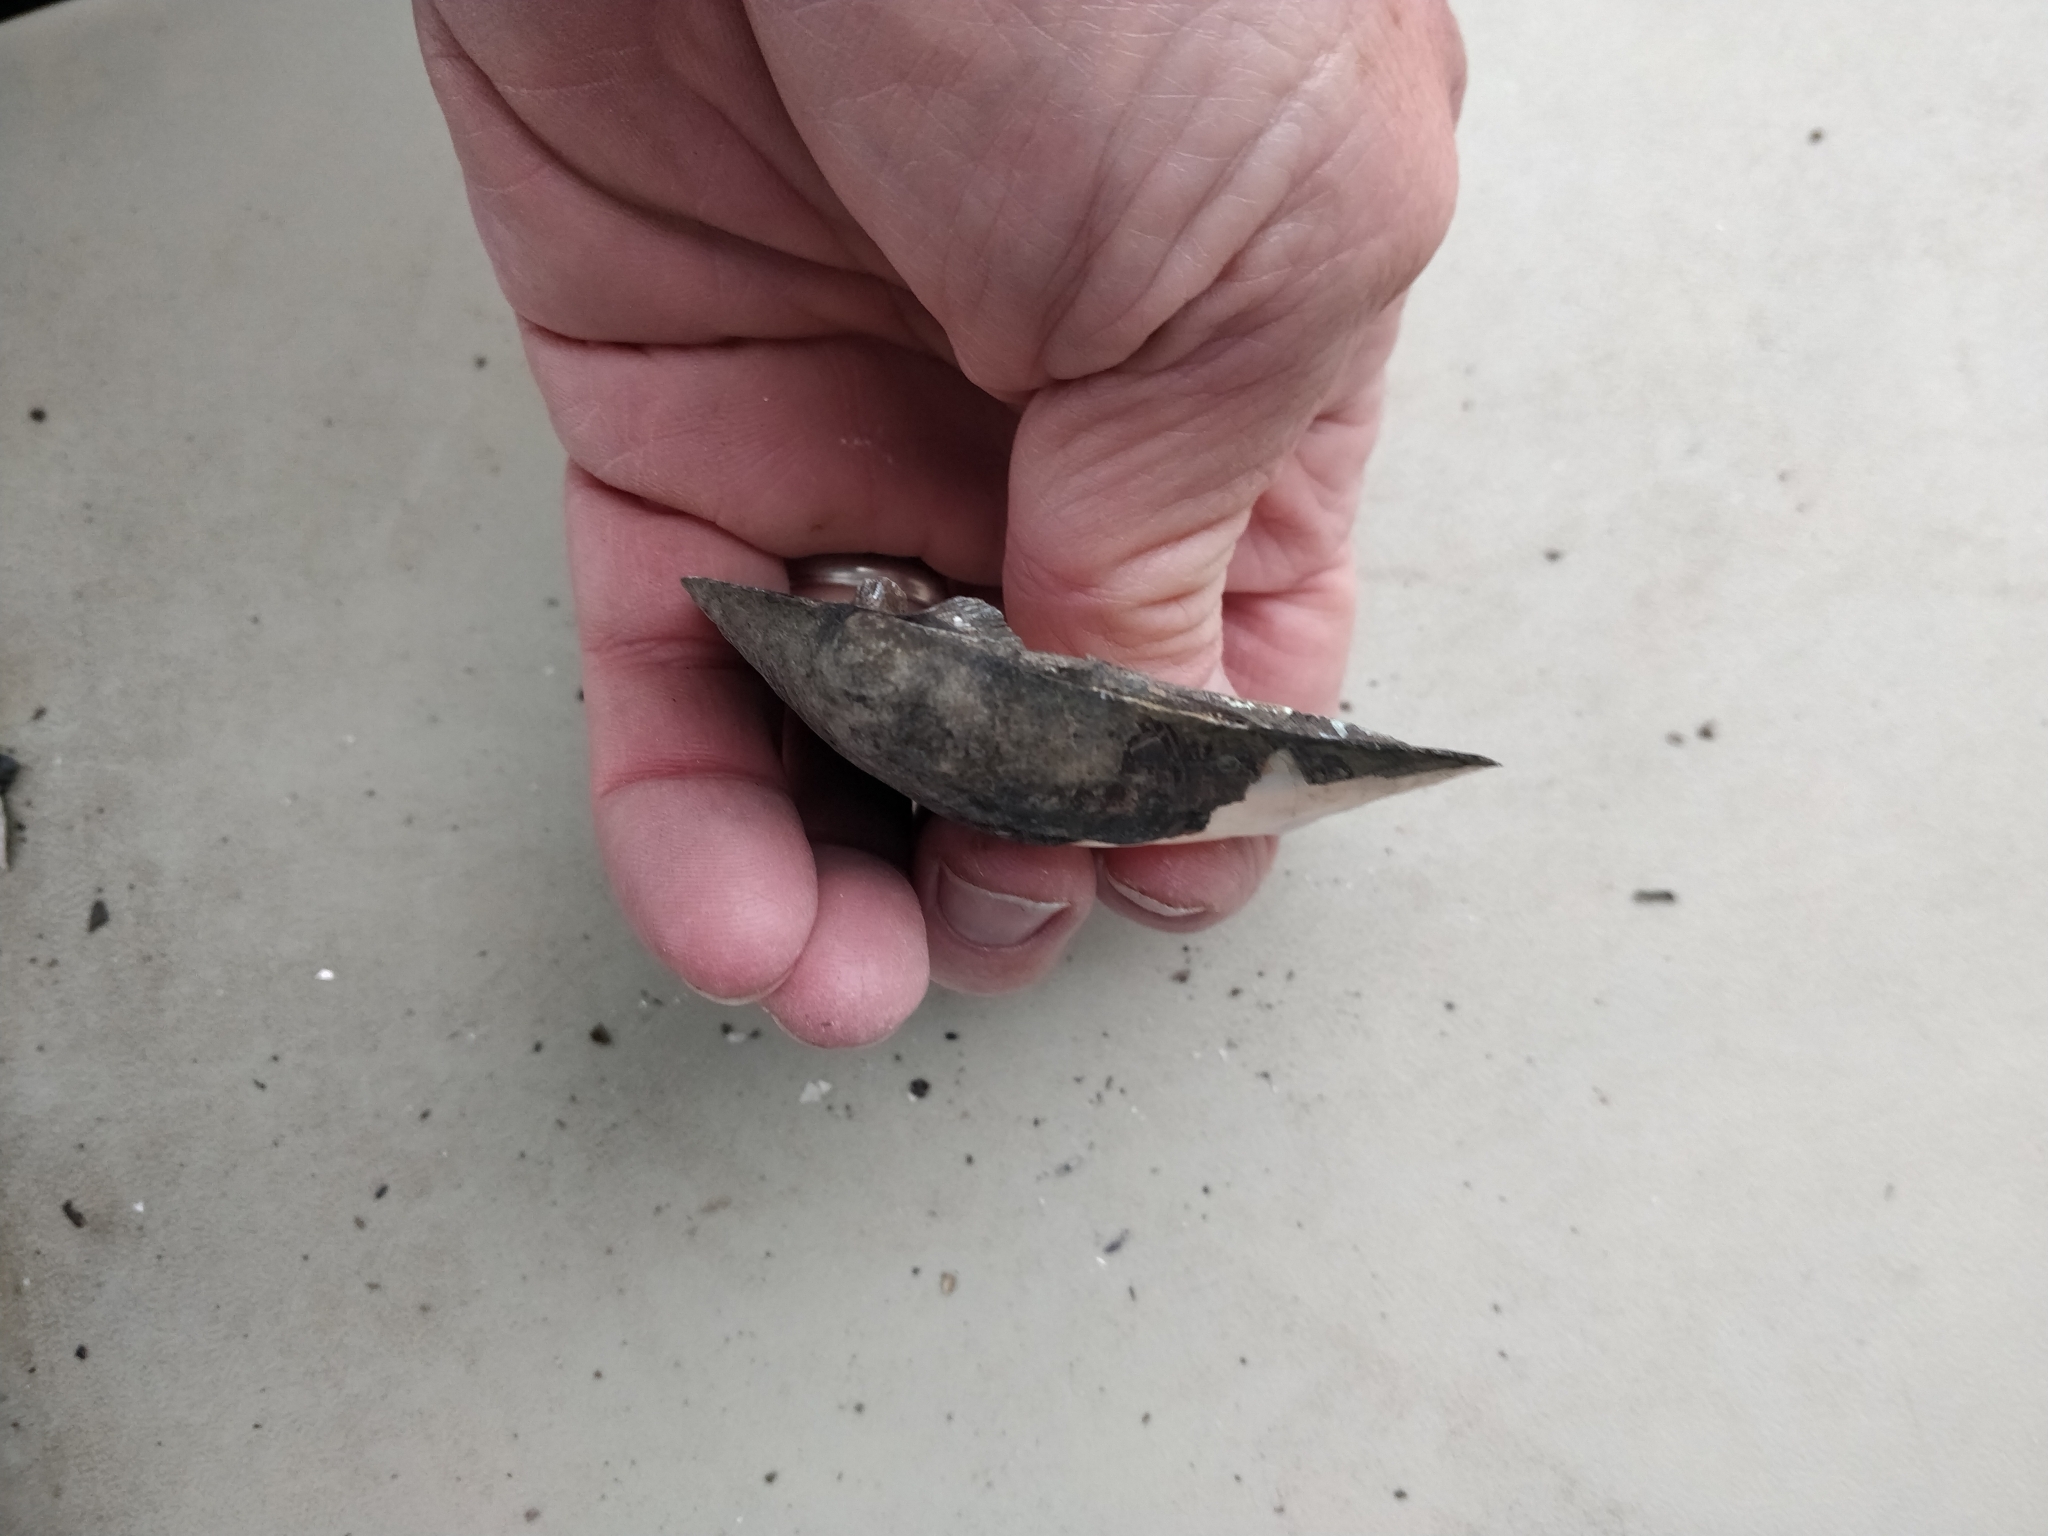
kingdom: Animalia
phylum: Mollusca
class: Bivalvia
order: Unionida
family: Unionidae
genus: Amblema
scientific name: Amblema plicata
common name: Threeridge
